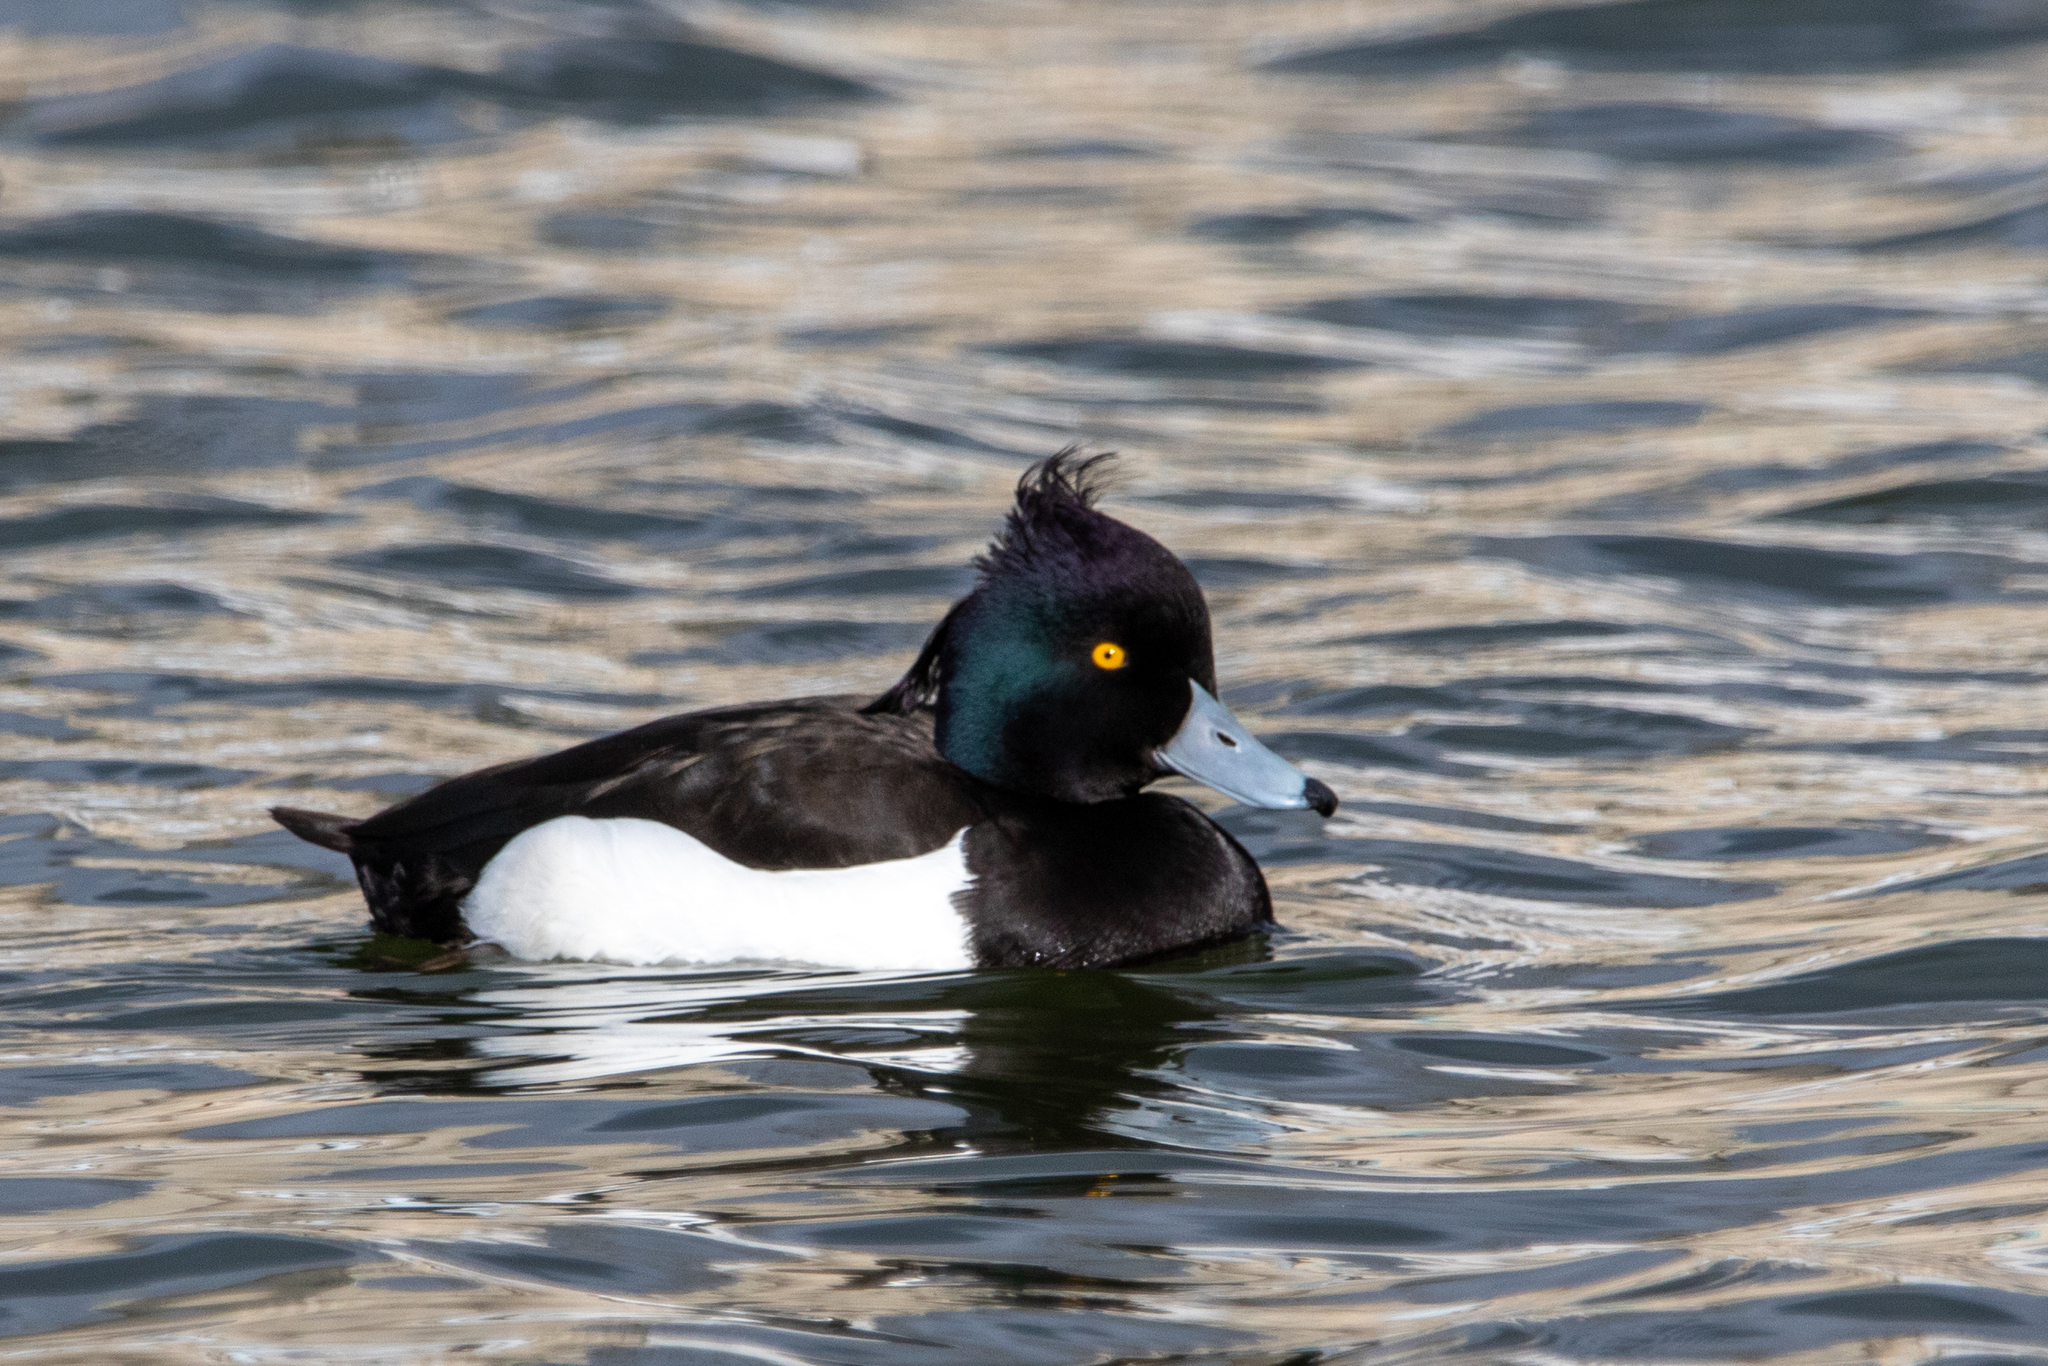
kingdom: Animalia
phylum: Chordata
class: Aves
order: Anseriformes
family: Anatidae
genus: Aythya
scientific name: Aythya fuligula
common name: Tufted duck
